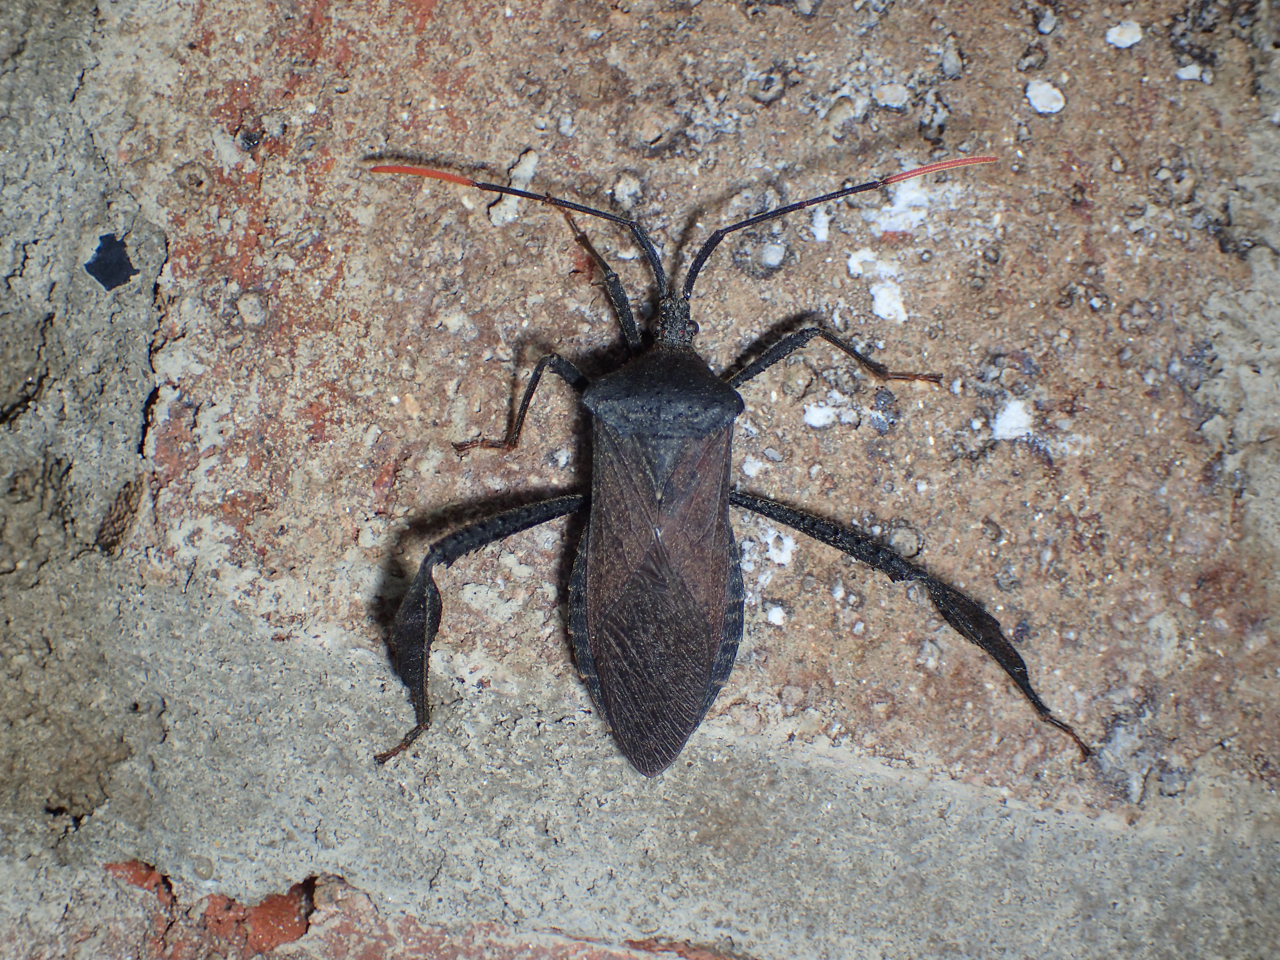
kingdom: Animalia
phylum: Arthropoda
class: Insecta
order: Hemiptera
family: Coreidae
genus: Acanthocephala
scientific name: Acanthocephala terminalis
